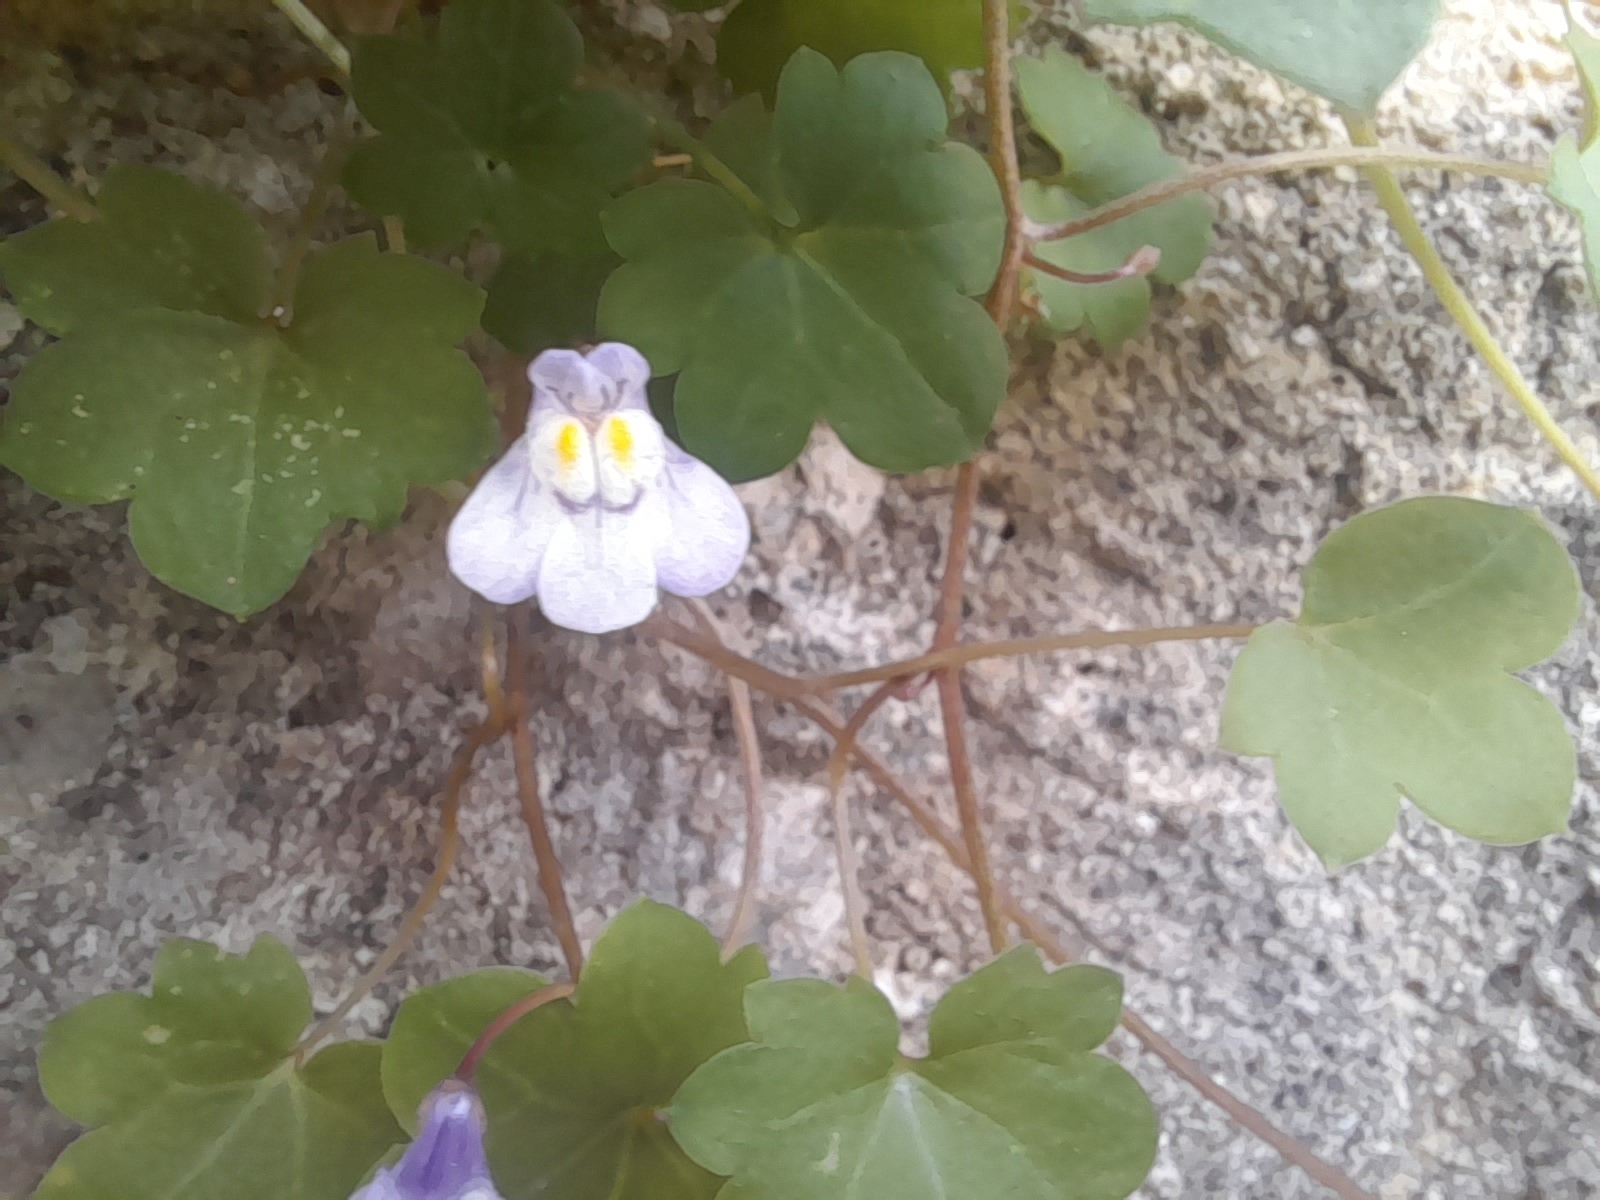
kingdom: Plantae
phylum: Tracheophyta
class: Magnoliopsida
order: Lamiales
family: Plantaginaceae
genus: Cymbalaria
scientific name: Cymbalaria muralis
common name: Ivy-leaved toadflax
